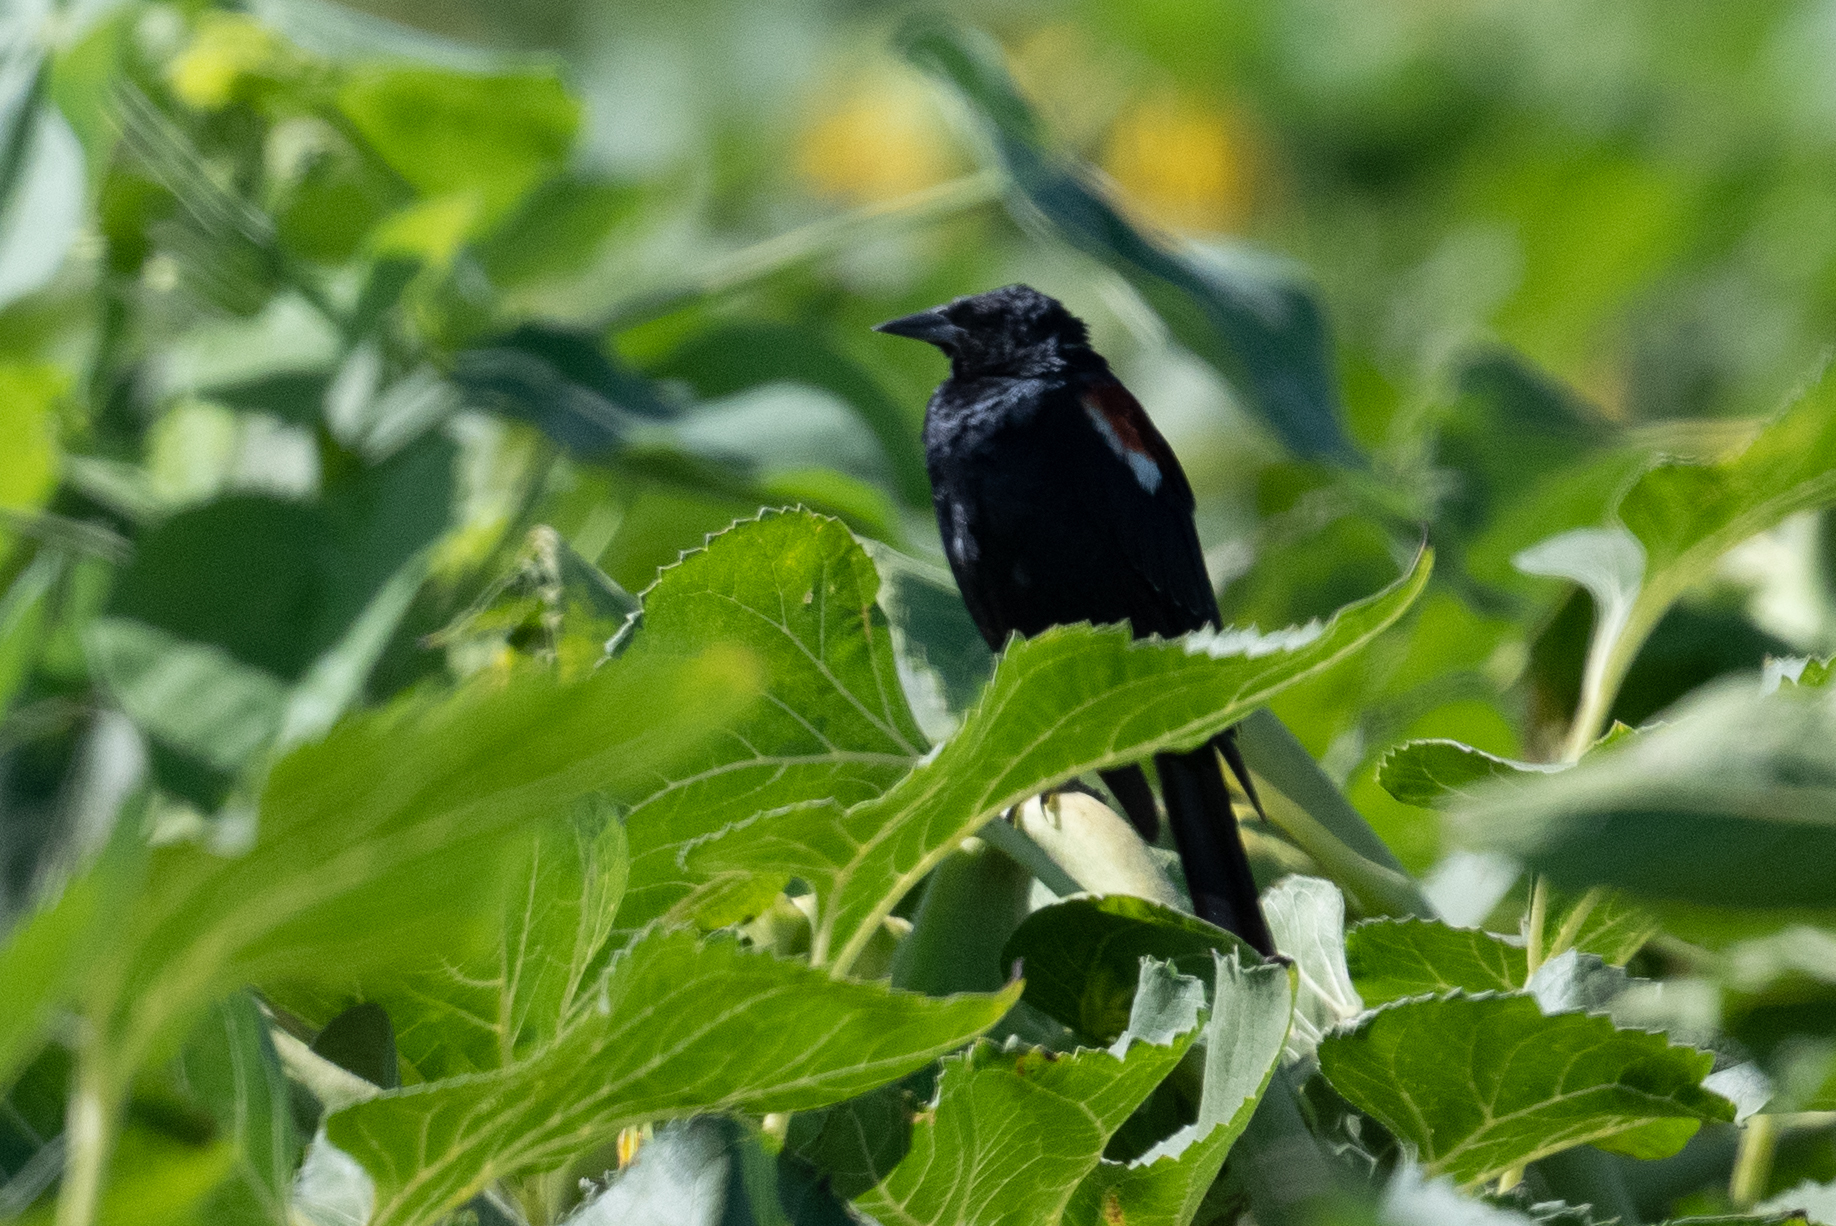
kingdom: Animalia
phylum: Chordata
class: Aves
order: Passeriformes
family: Icteridae
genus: Agelaius
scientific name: Agelaius tricolor
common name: Tricolored blackbird
